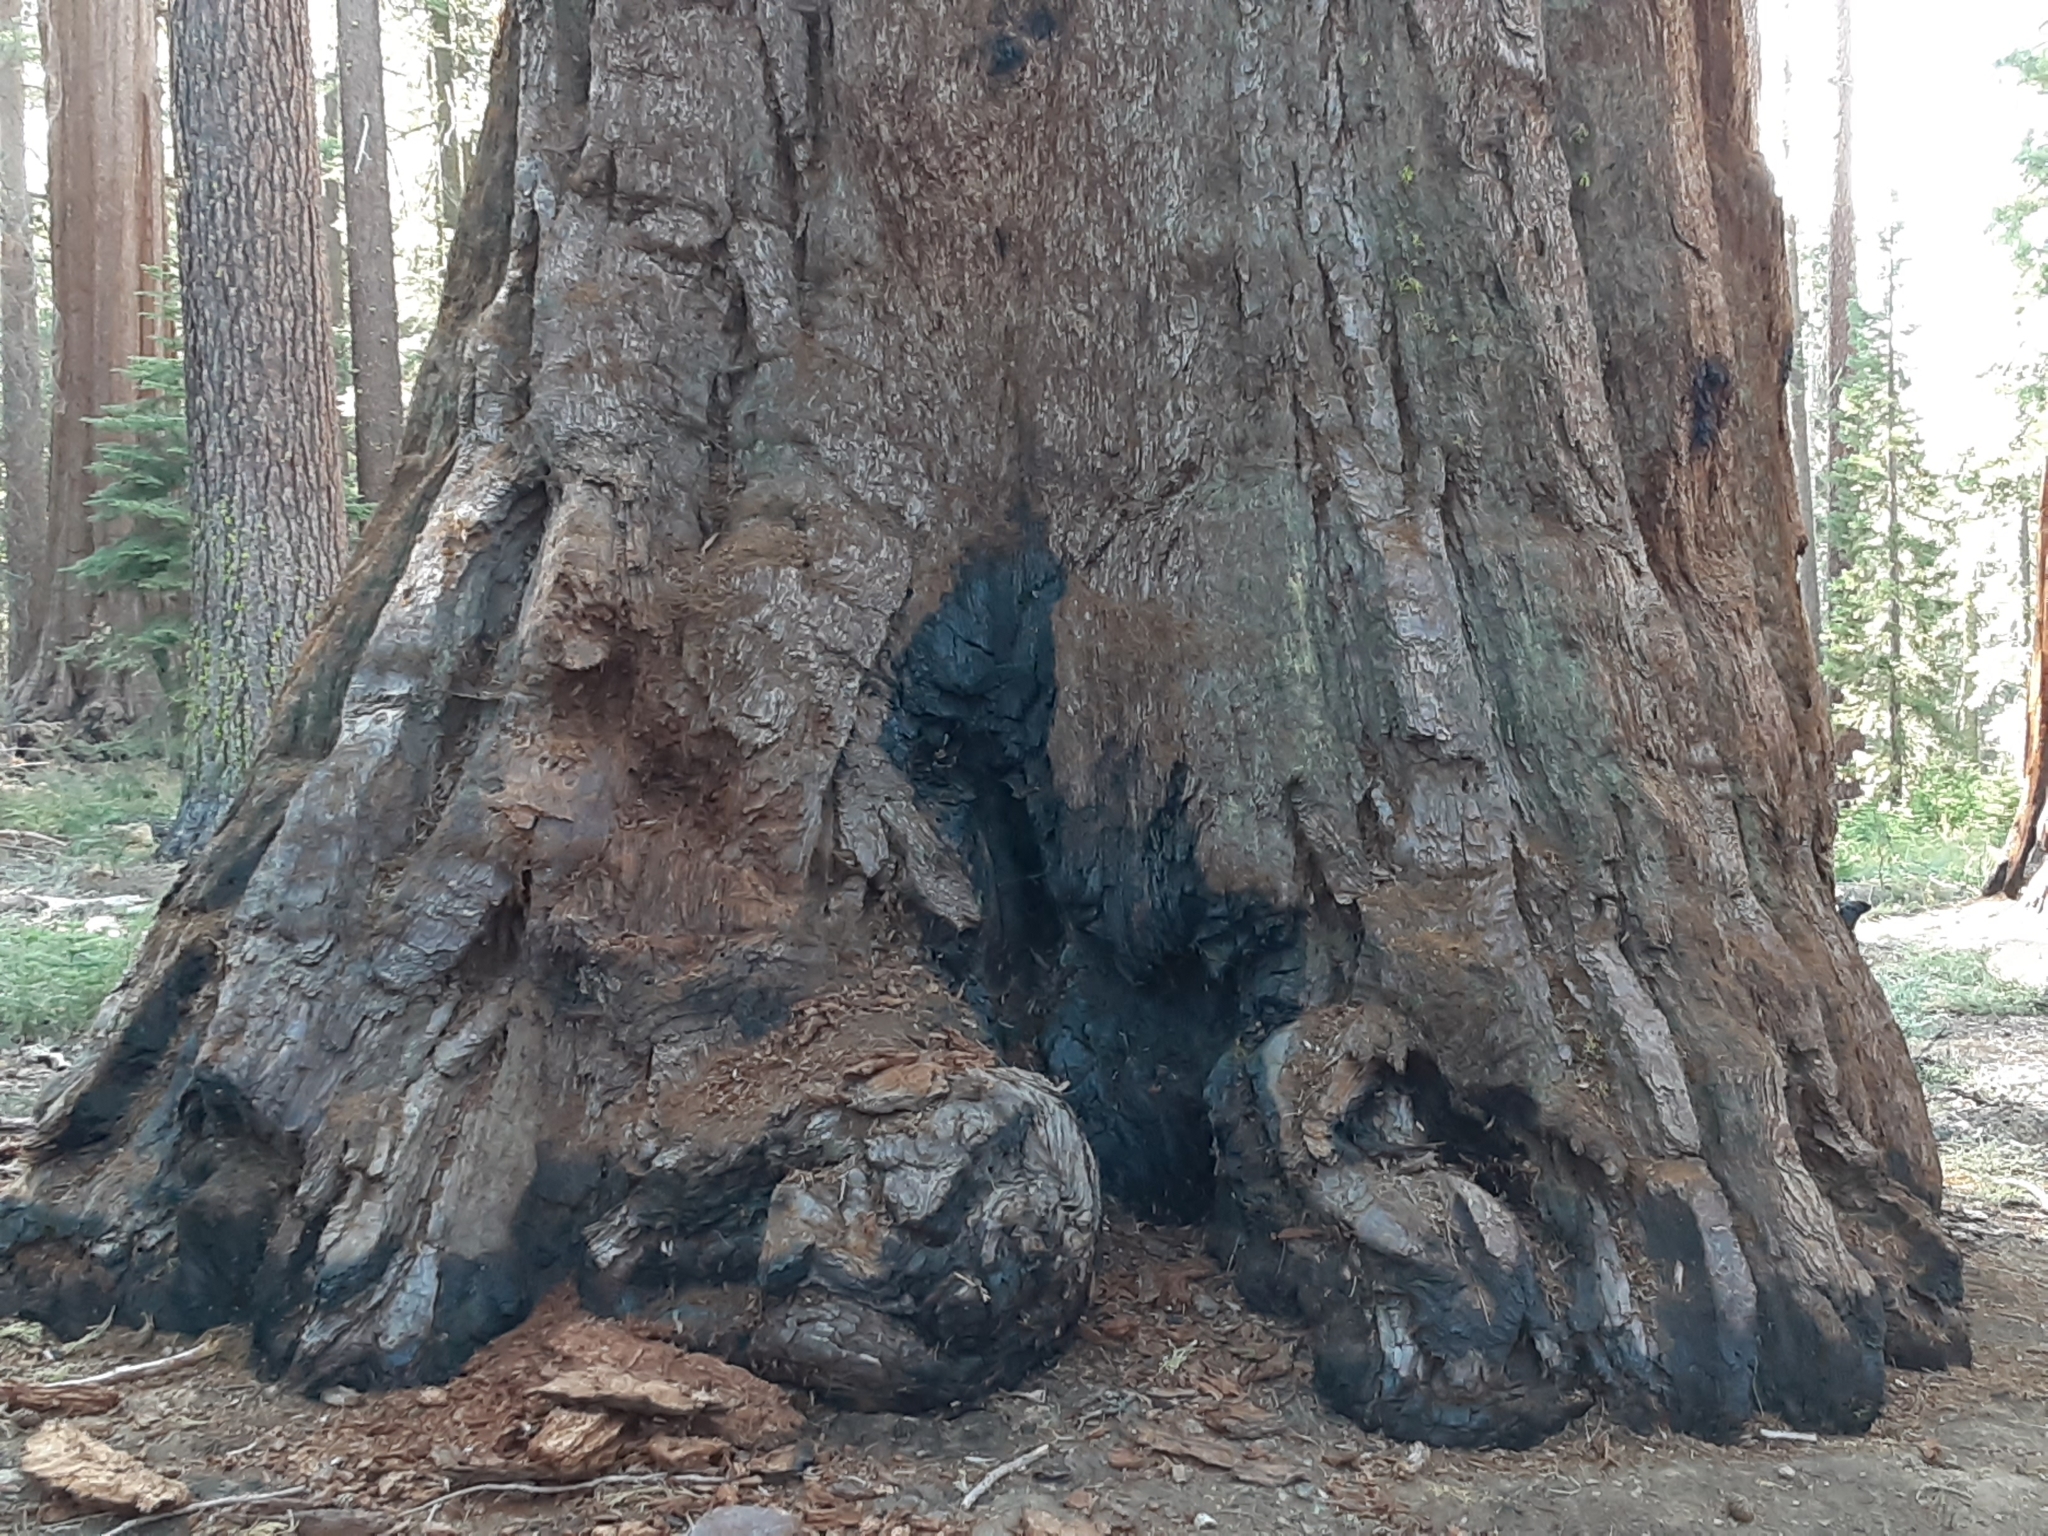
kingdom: Plantae
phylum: Tracheophyta
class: Pinopsida
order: Pinales
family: Cupressaceae
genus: Sequoiadendron
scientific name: Sequoiadendron giganteum
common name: Wellingtonia
